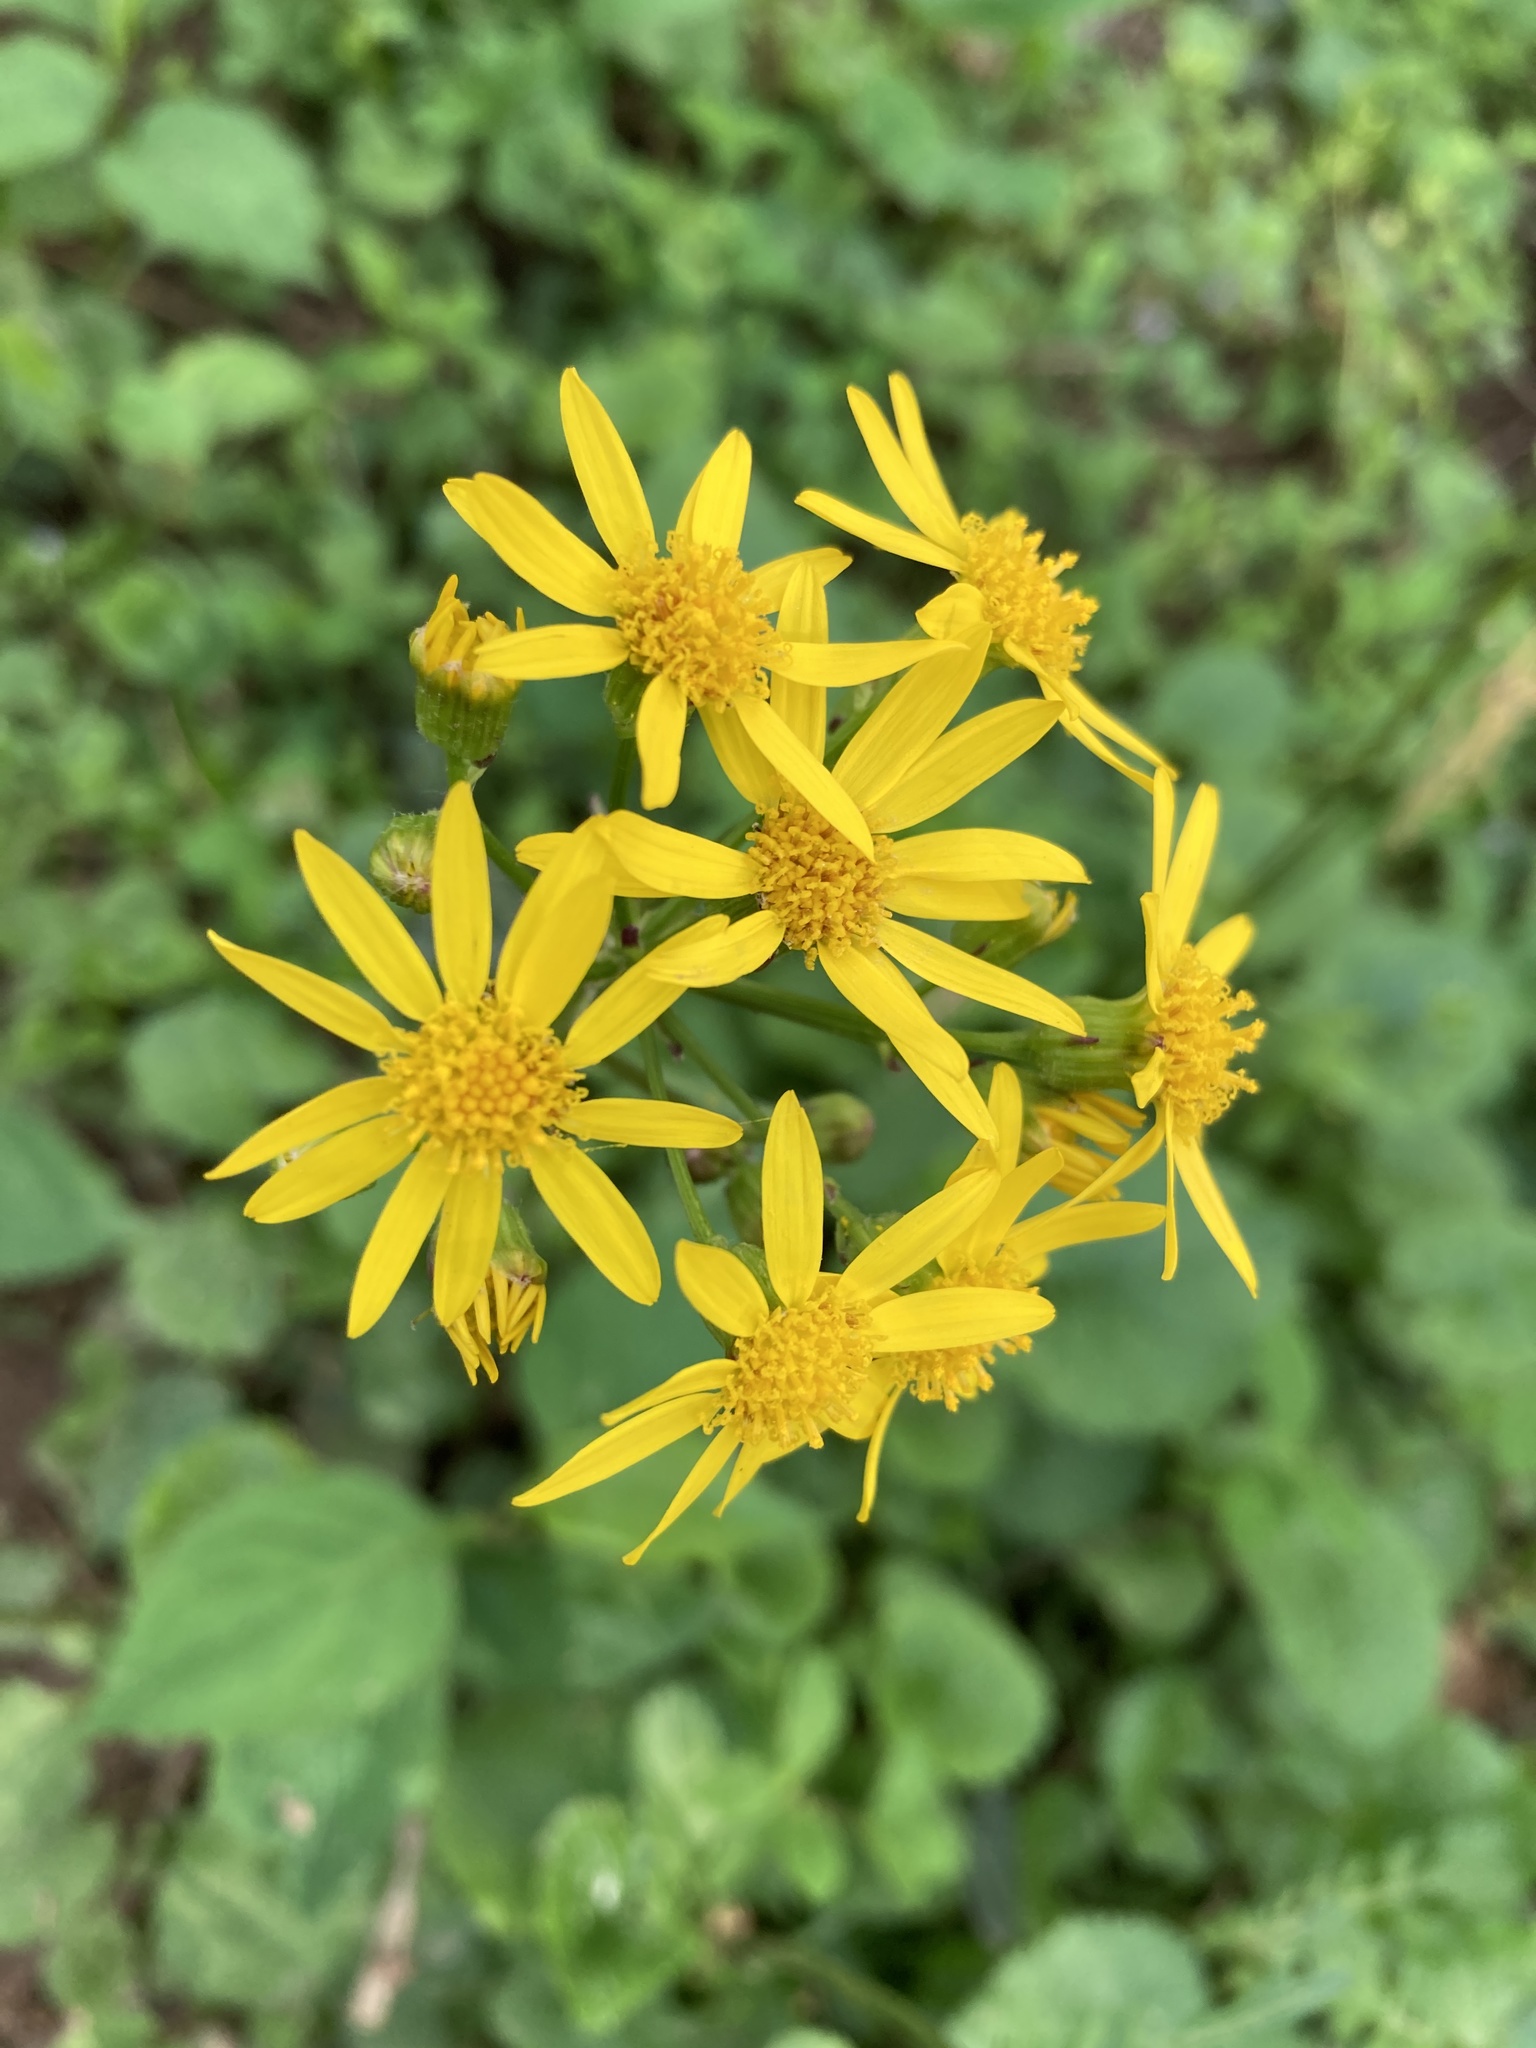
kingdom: Plantae
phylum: Tracheophyta
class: Magnoliopsida
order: Asterales
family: Asteraceae
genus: Packera
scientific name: Packera aurea
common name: Golden groundsel
